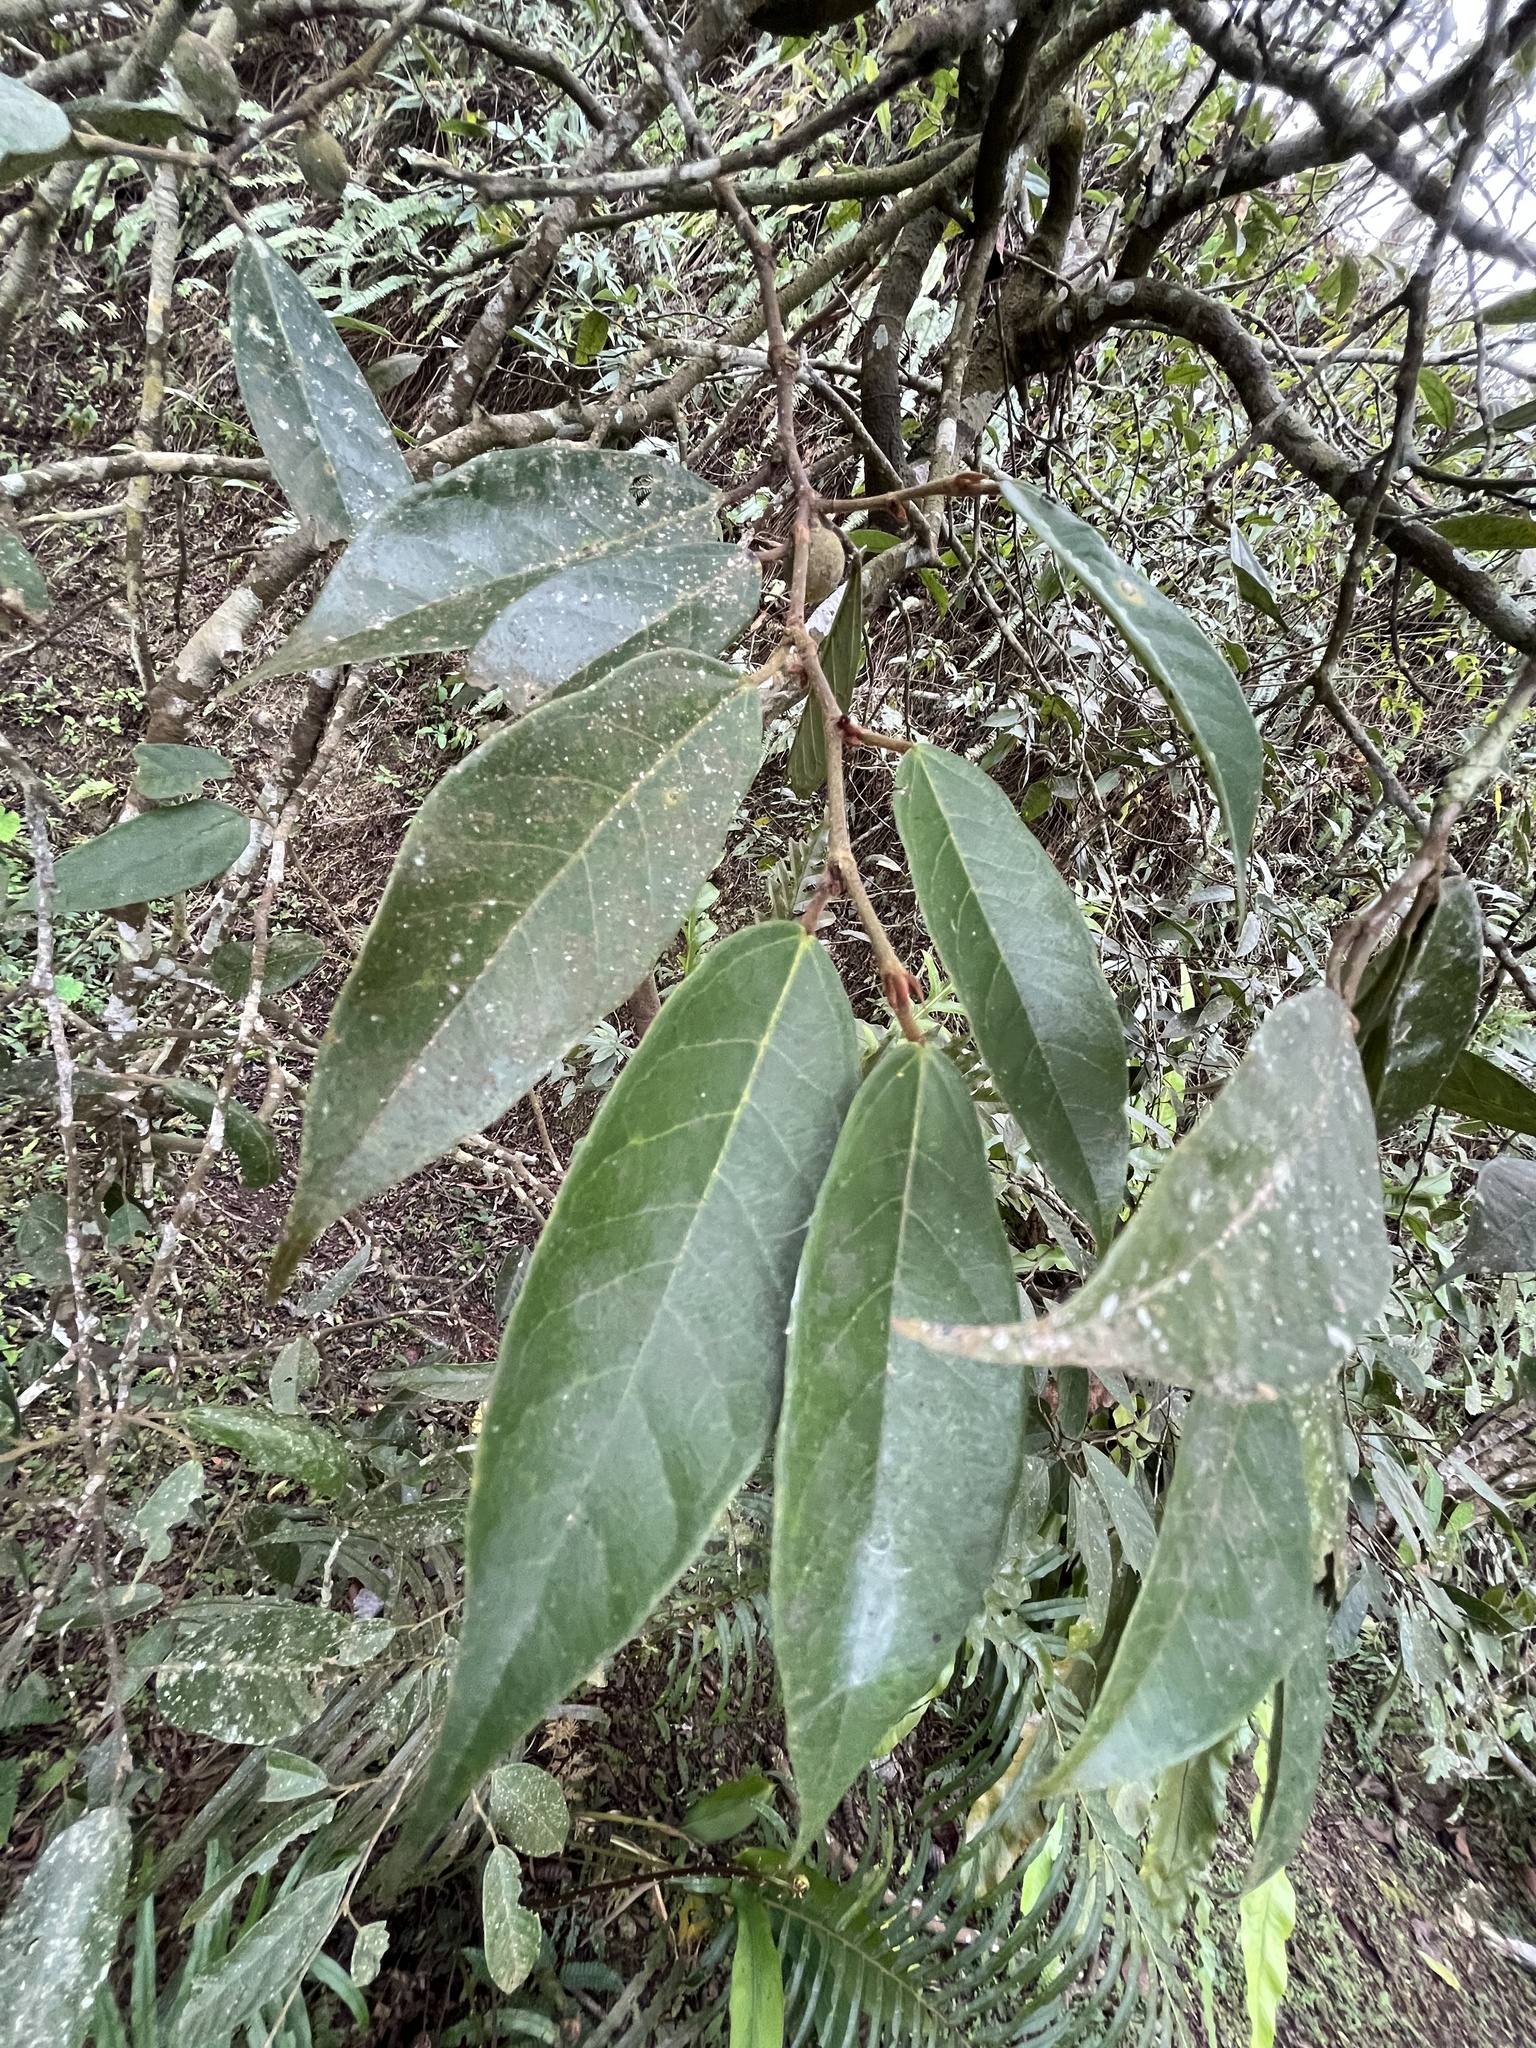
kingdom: Plantae
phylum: Tracheophyta
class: Magnoliopsida
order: Rosales
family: Moraceae
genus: Ficus
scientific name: Ficus sarmentosa
